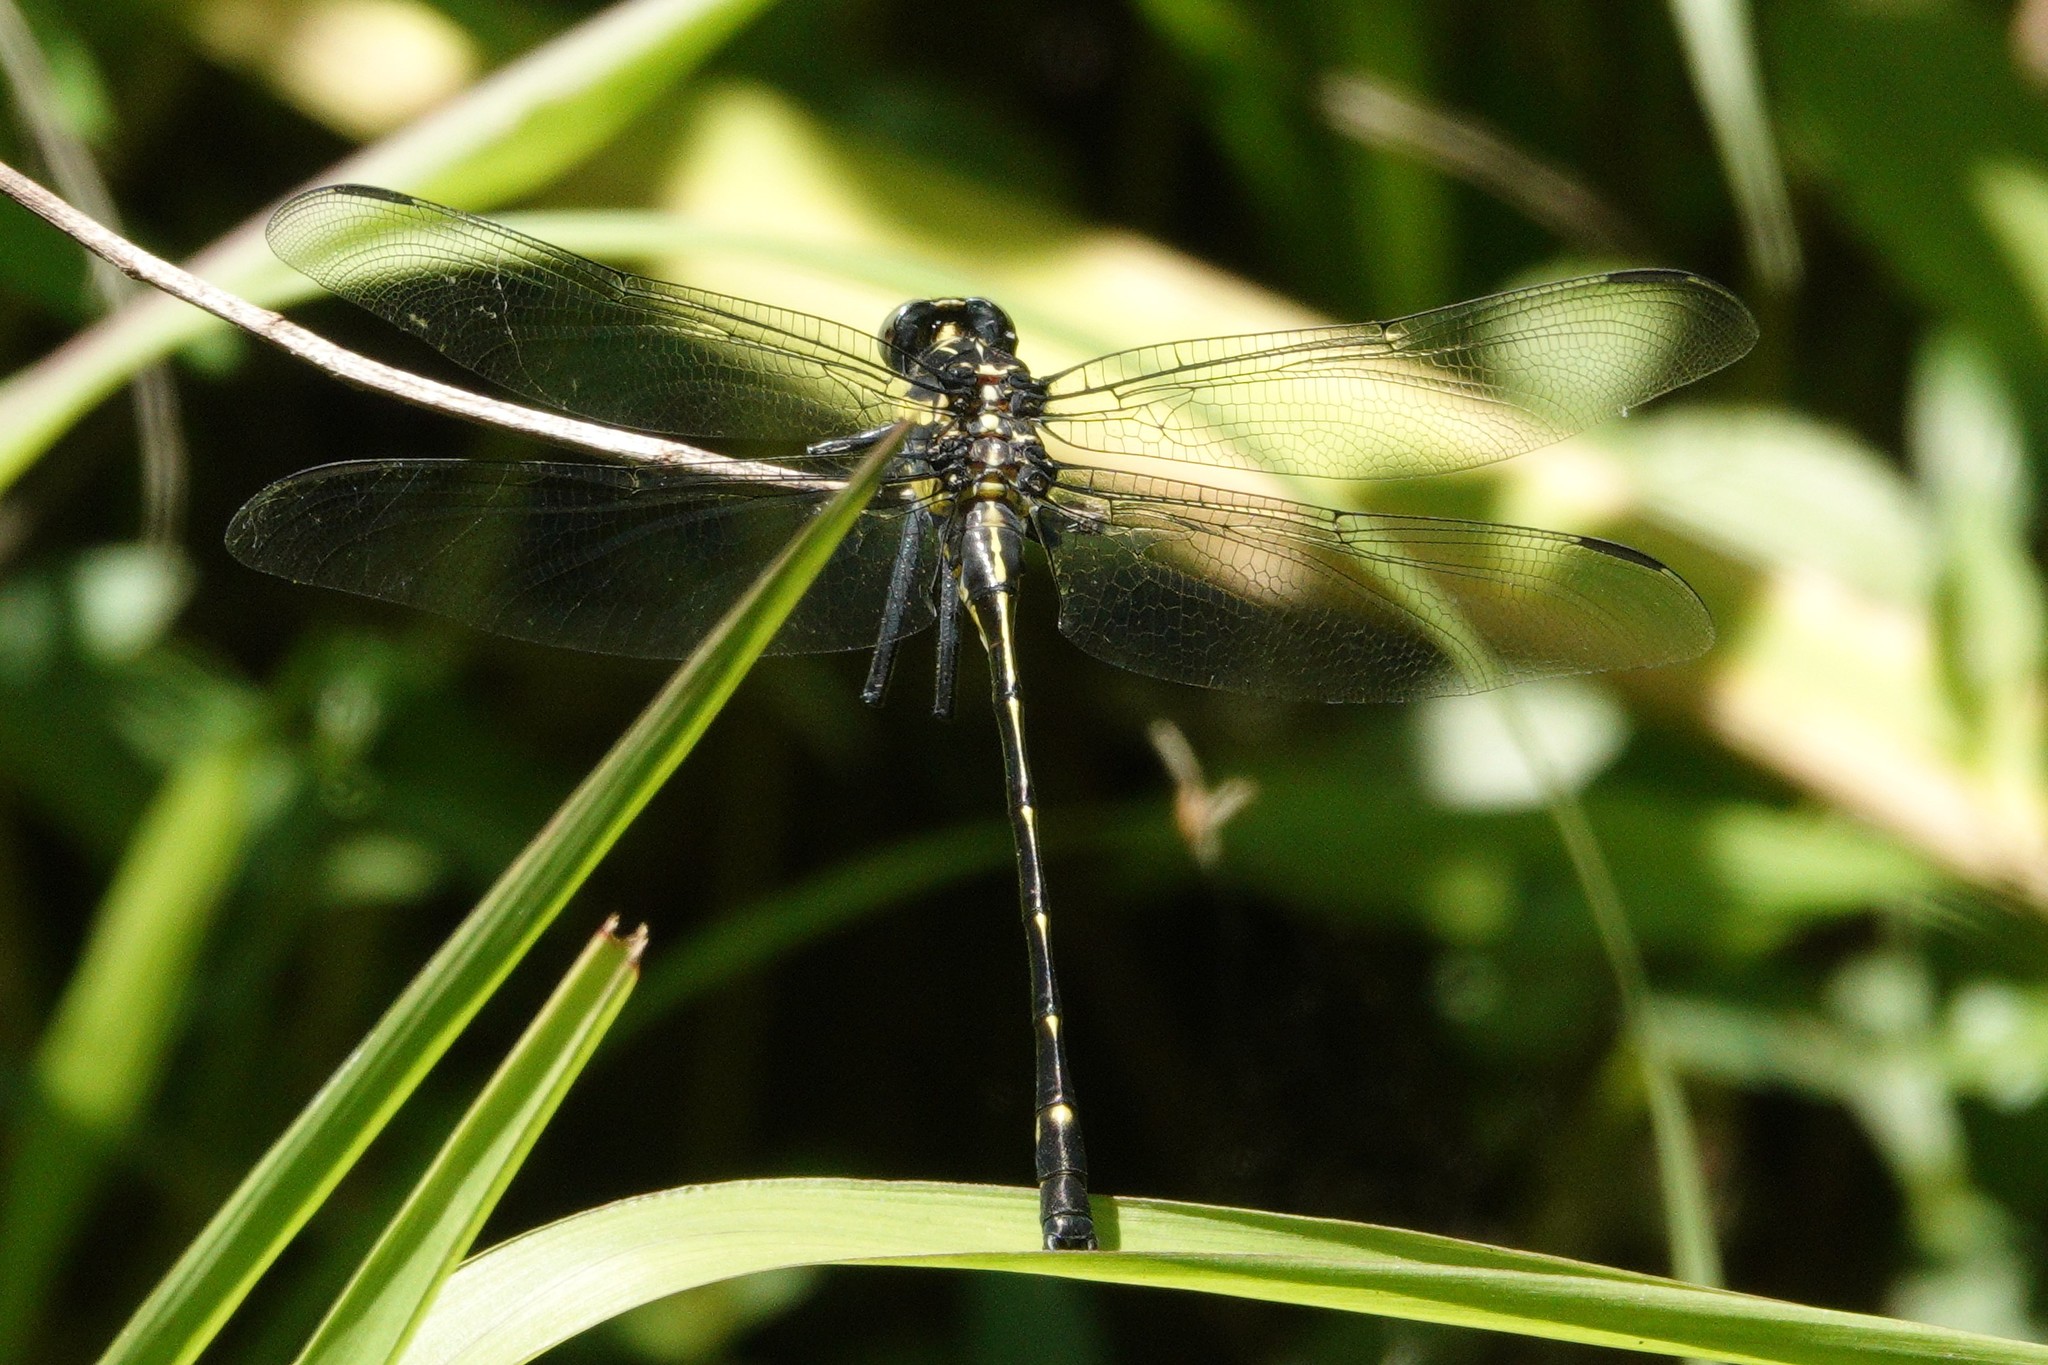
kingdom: Animalia
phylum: Arthropoda
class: Insecta
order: Odonata
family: Gomphidae
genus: Hagenius
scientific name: Hagenius brevistylus
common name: Dragonhunter
